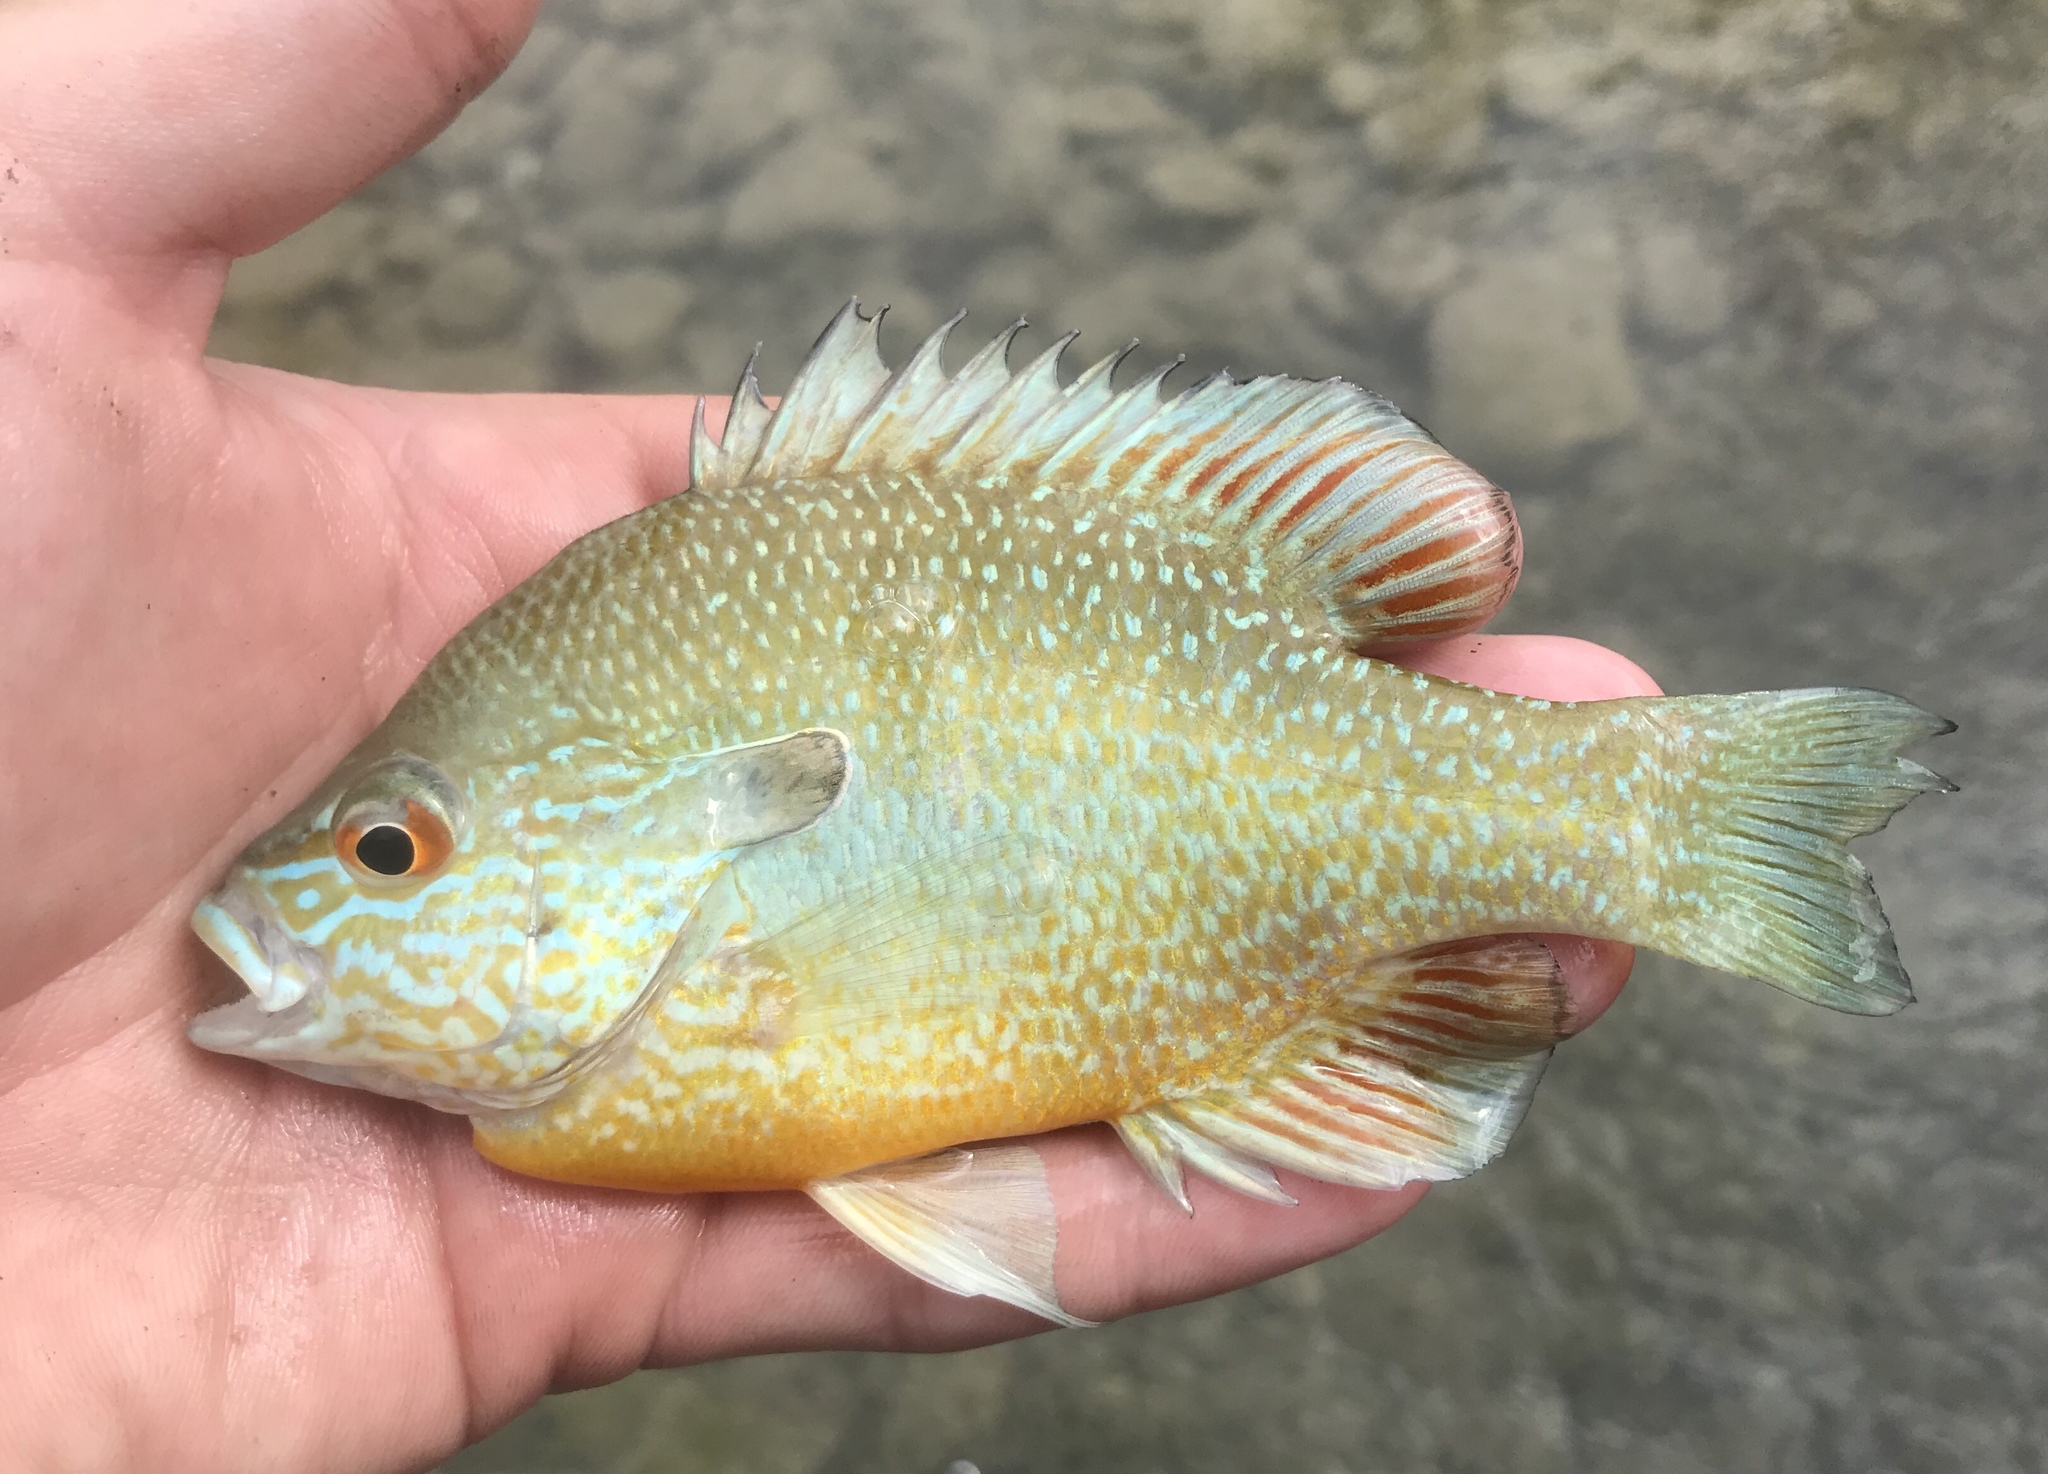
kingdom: Animalia
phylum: Chordata
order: Perciformes
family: Centrarchidae
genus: Lepomis
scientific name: Lepomis megalotis
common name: Longear sunfish
